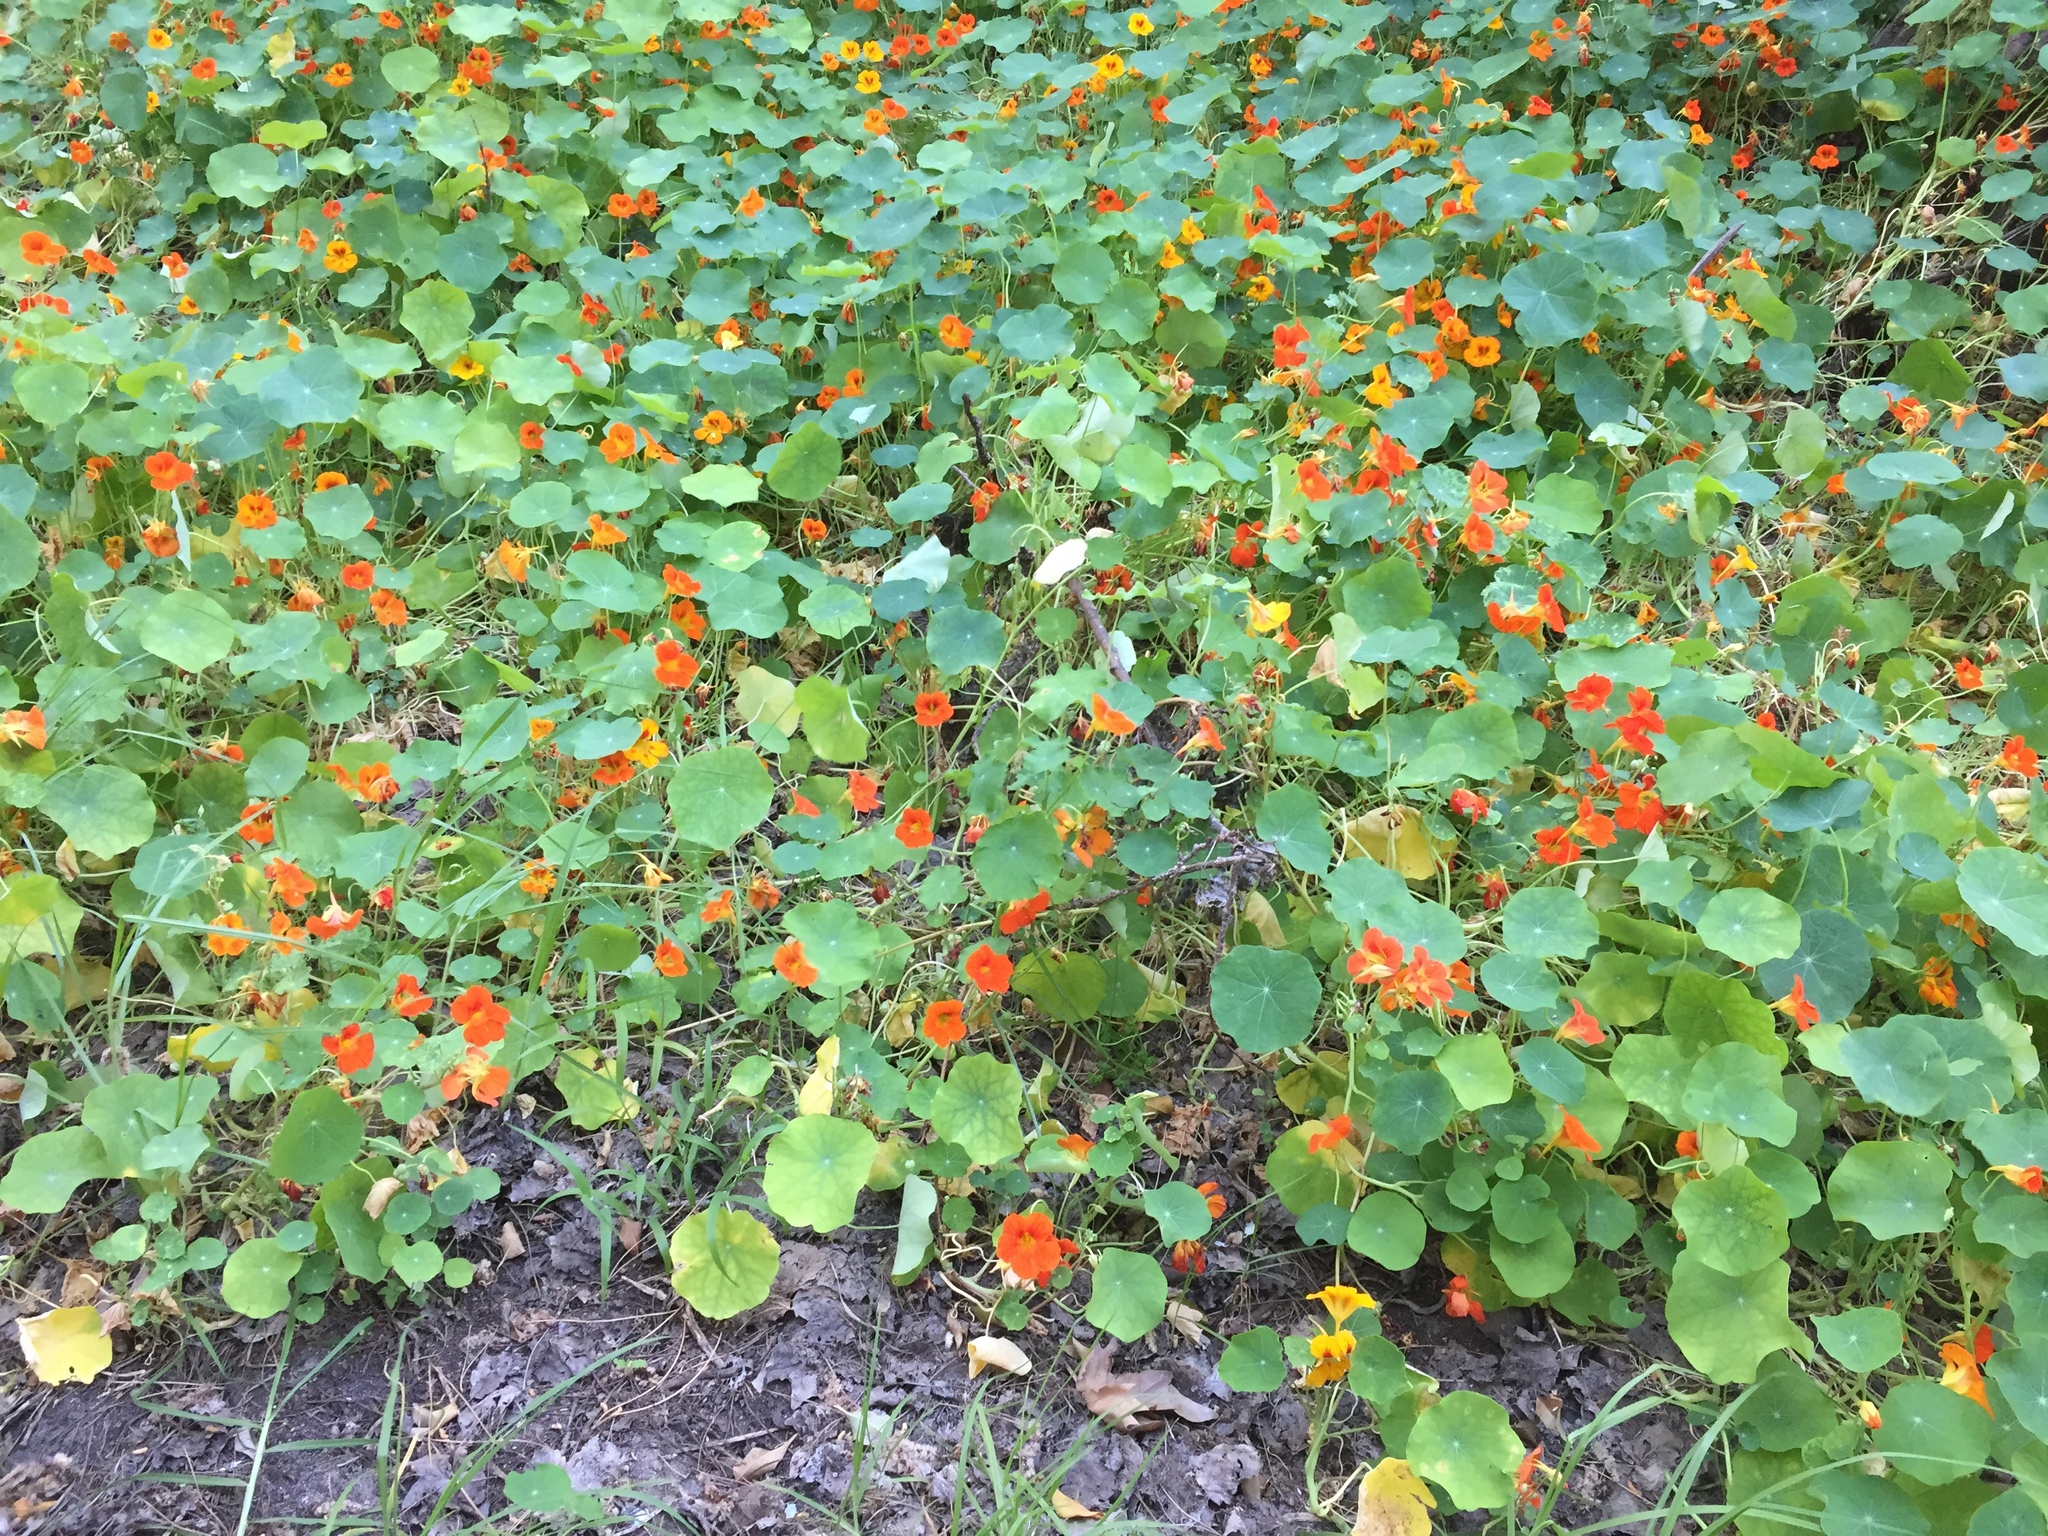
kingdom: Plantae
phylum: Tracheophyta
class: Magnoliopsida
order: Brassicales
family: Tropaeolaceae
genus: Tropaeolum
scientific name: Tropaeolum majus
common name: Nasturtium
